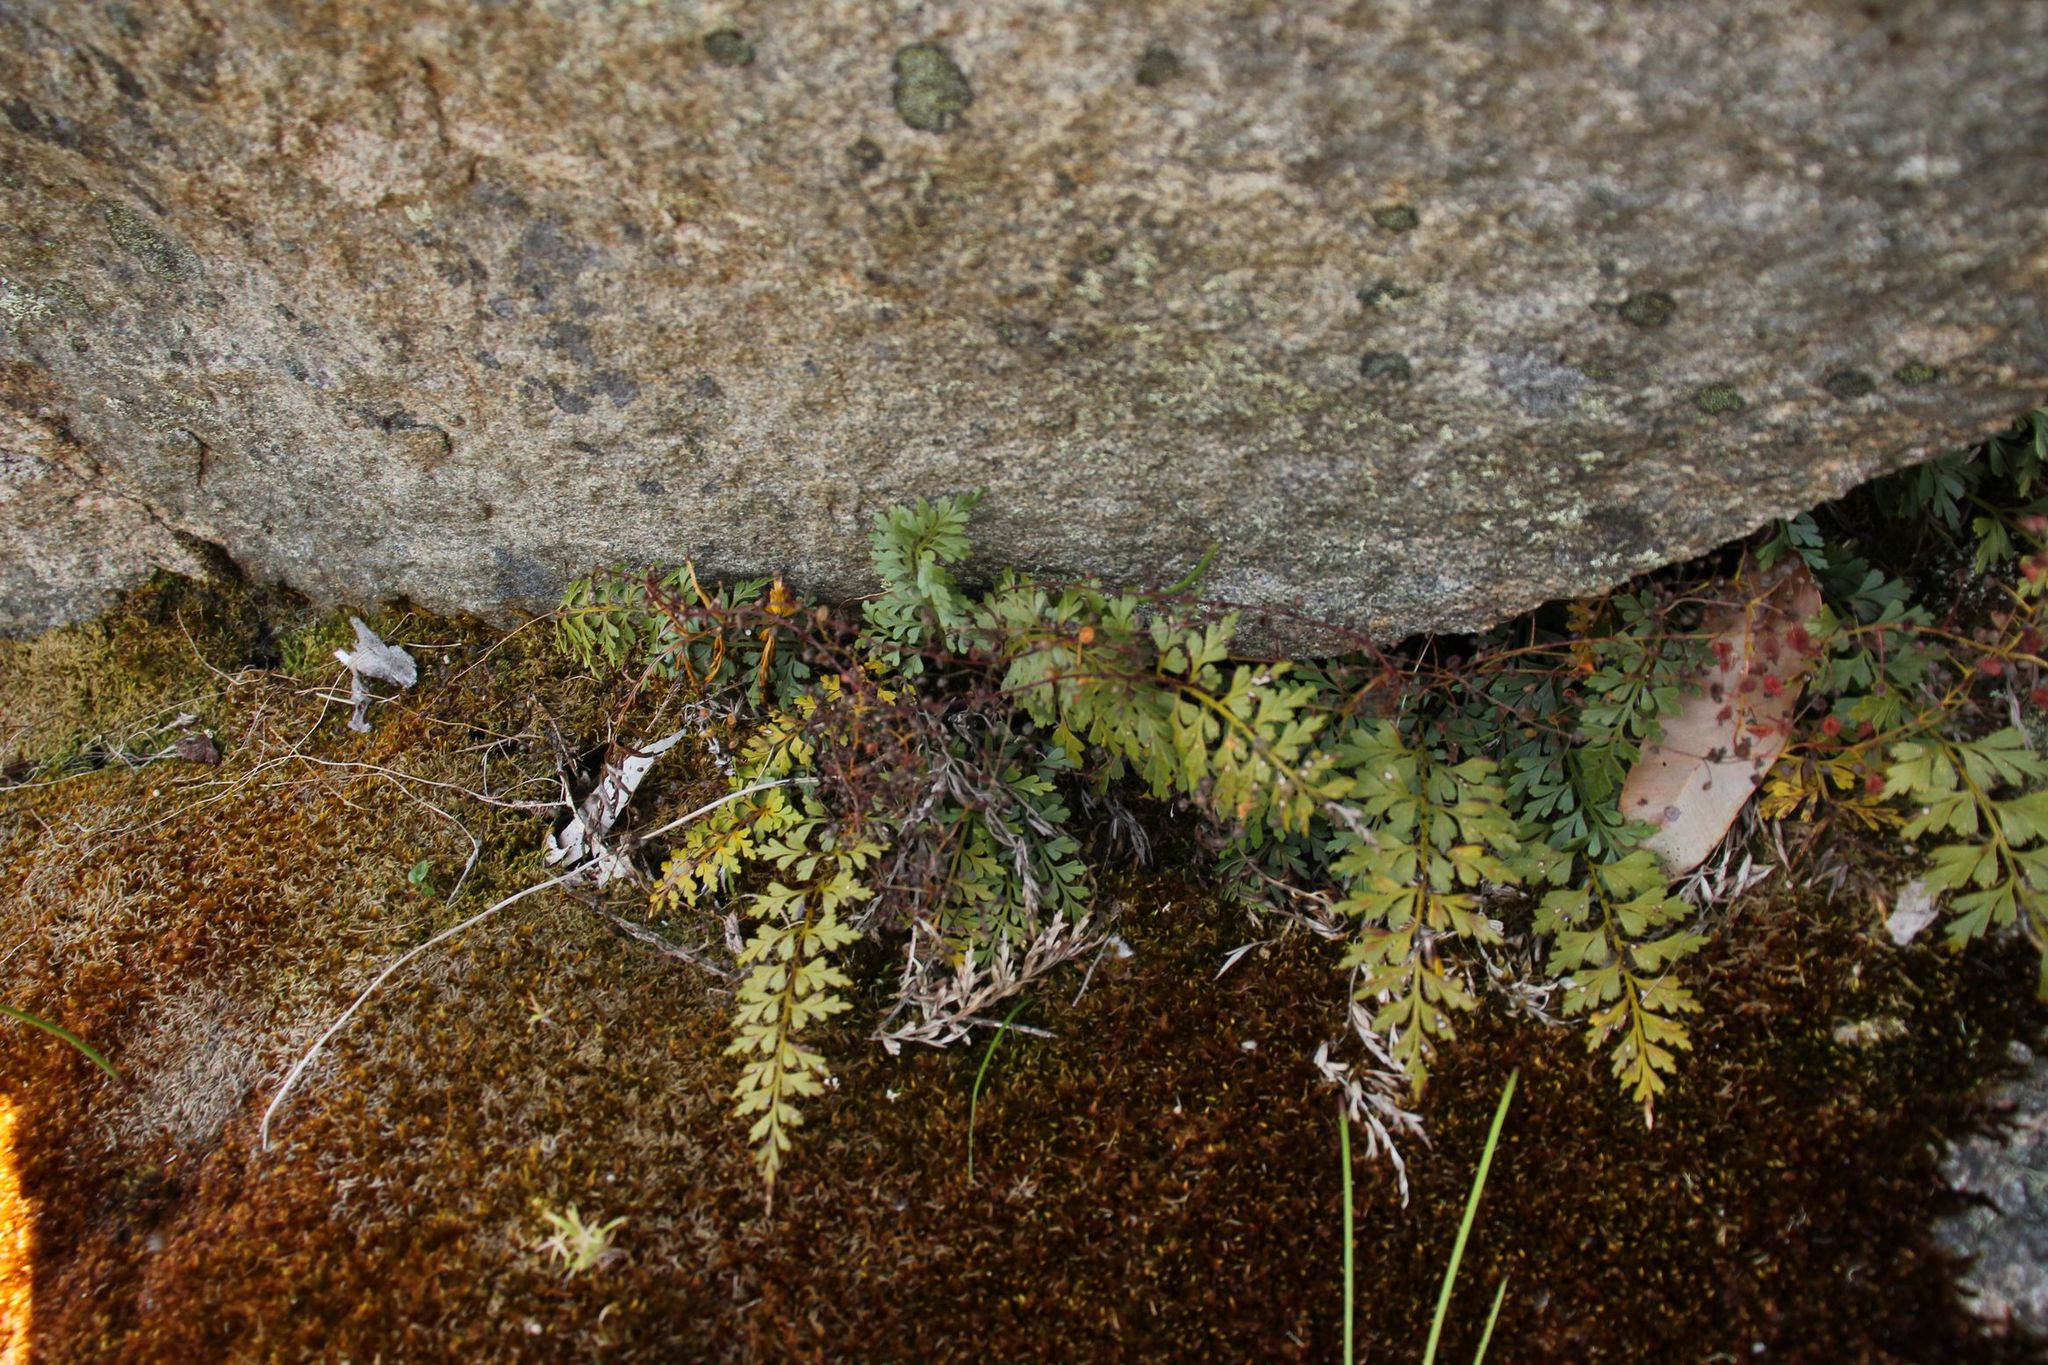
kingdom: Plantae
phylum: Tracheophyta
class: Polypodiopsida
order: Polypodiales
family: Aspleniaceae
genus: Asplenium
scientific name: Asplenium aethiopicum
